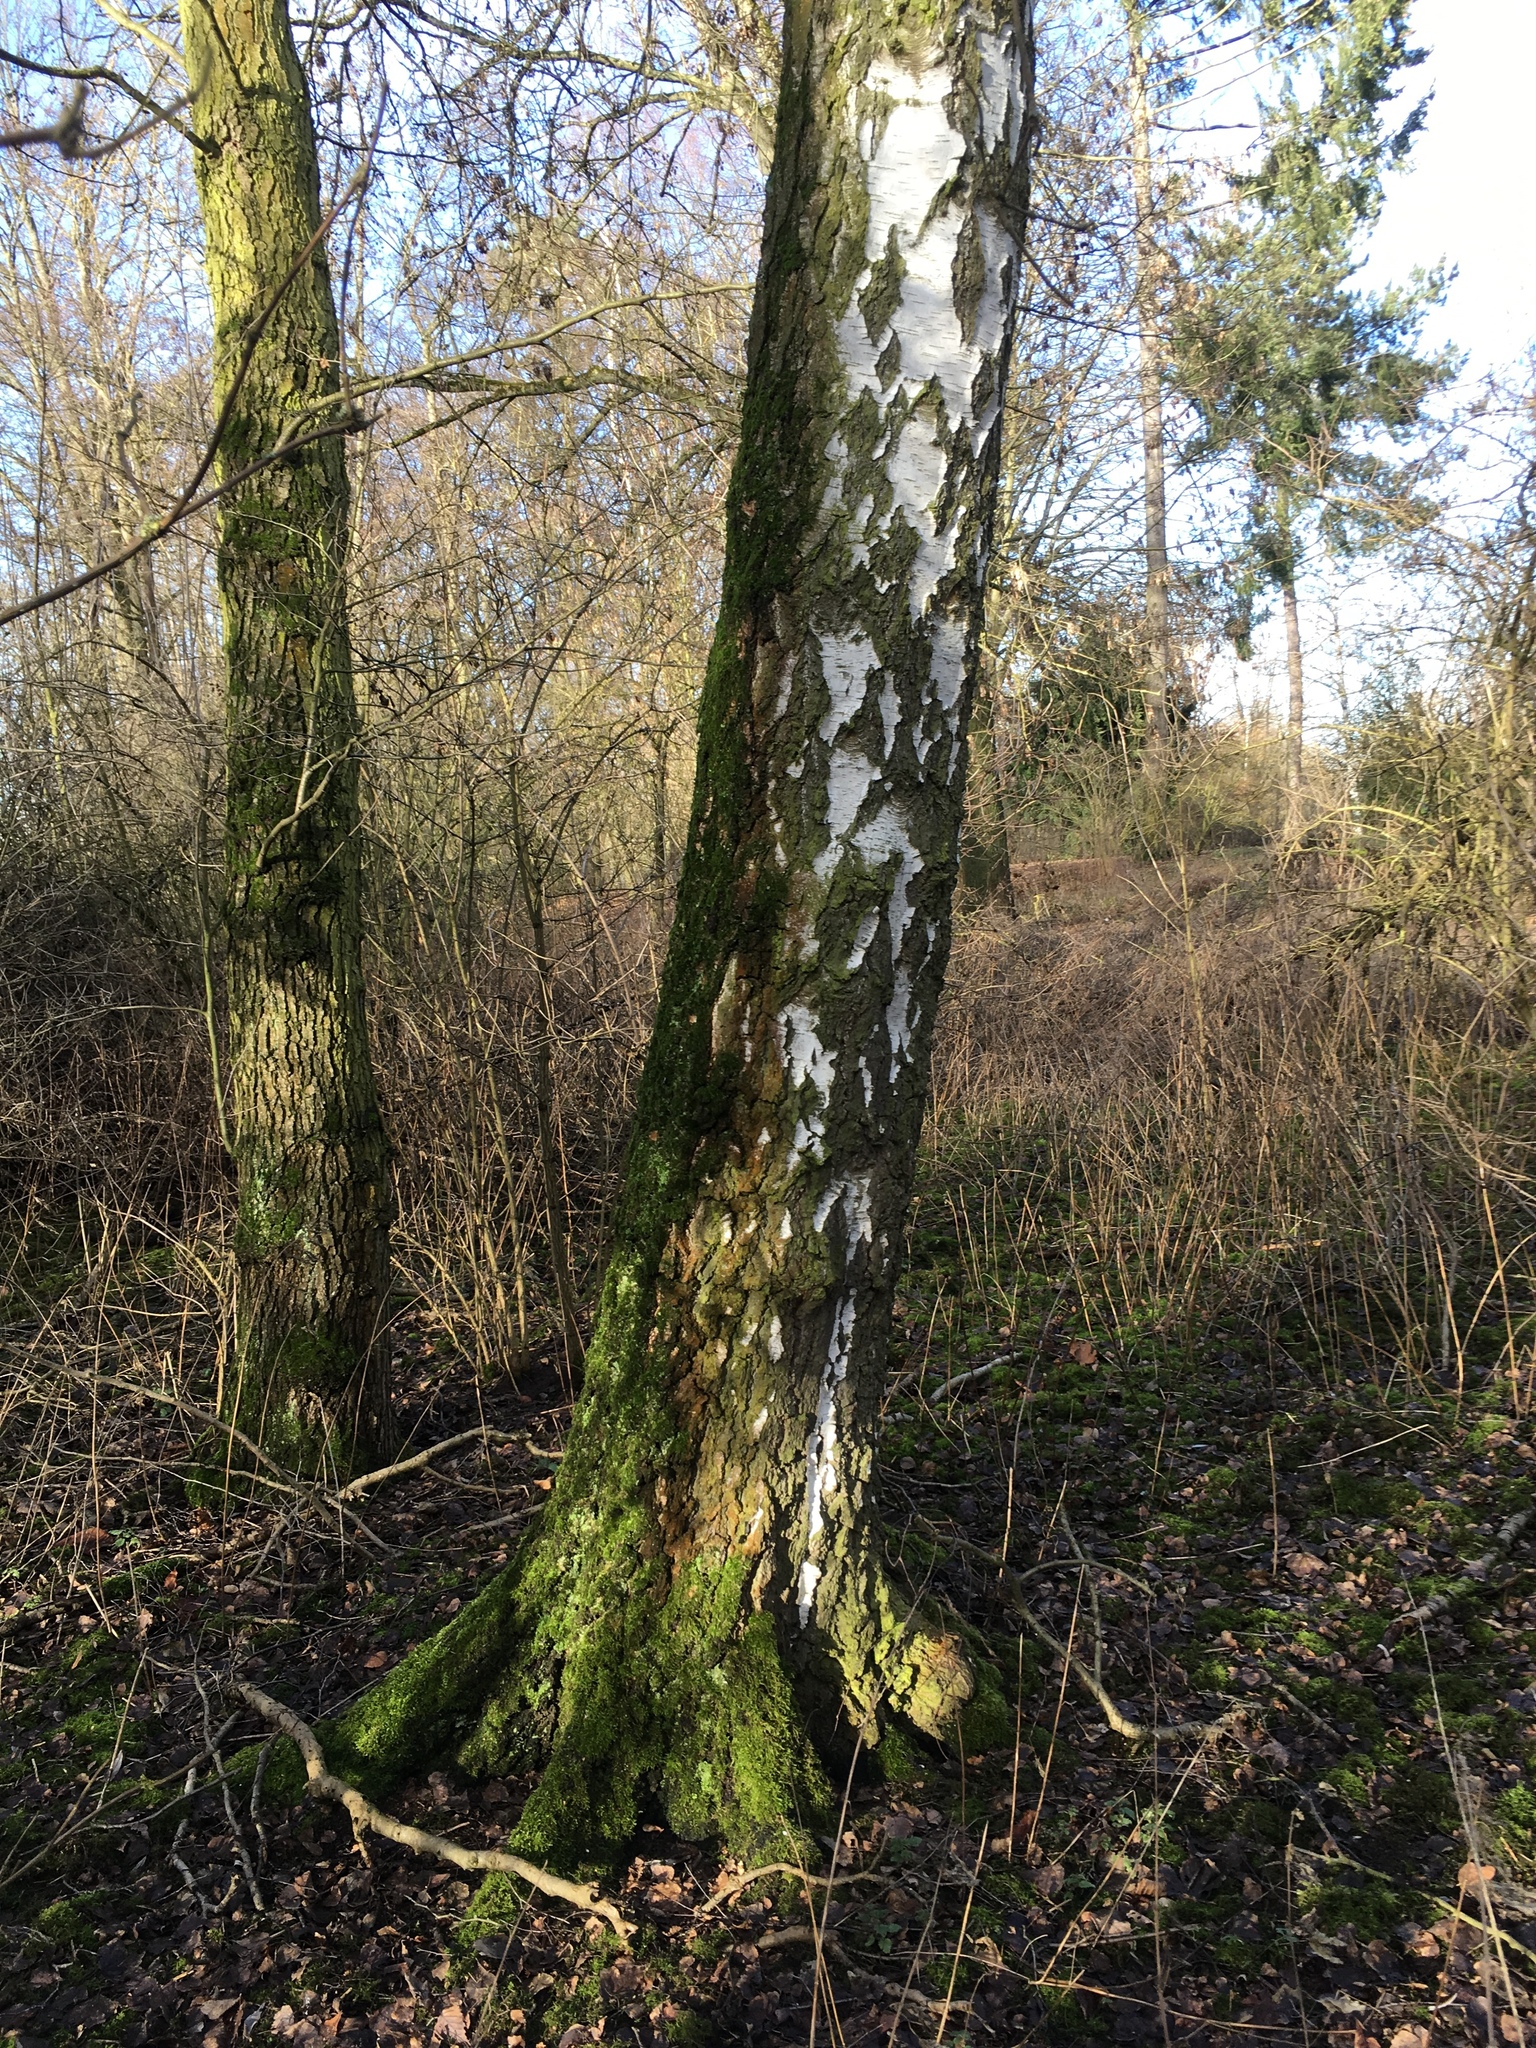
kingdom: Plantae
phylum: Tracheophyta
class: Magnoliopsida
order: Fagales
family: Betulaceae
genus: Betula
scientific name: Betula pendula
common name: Silver birch
